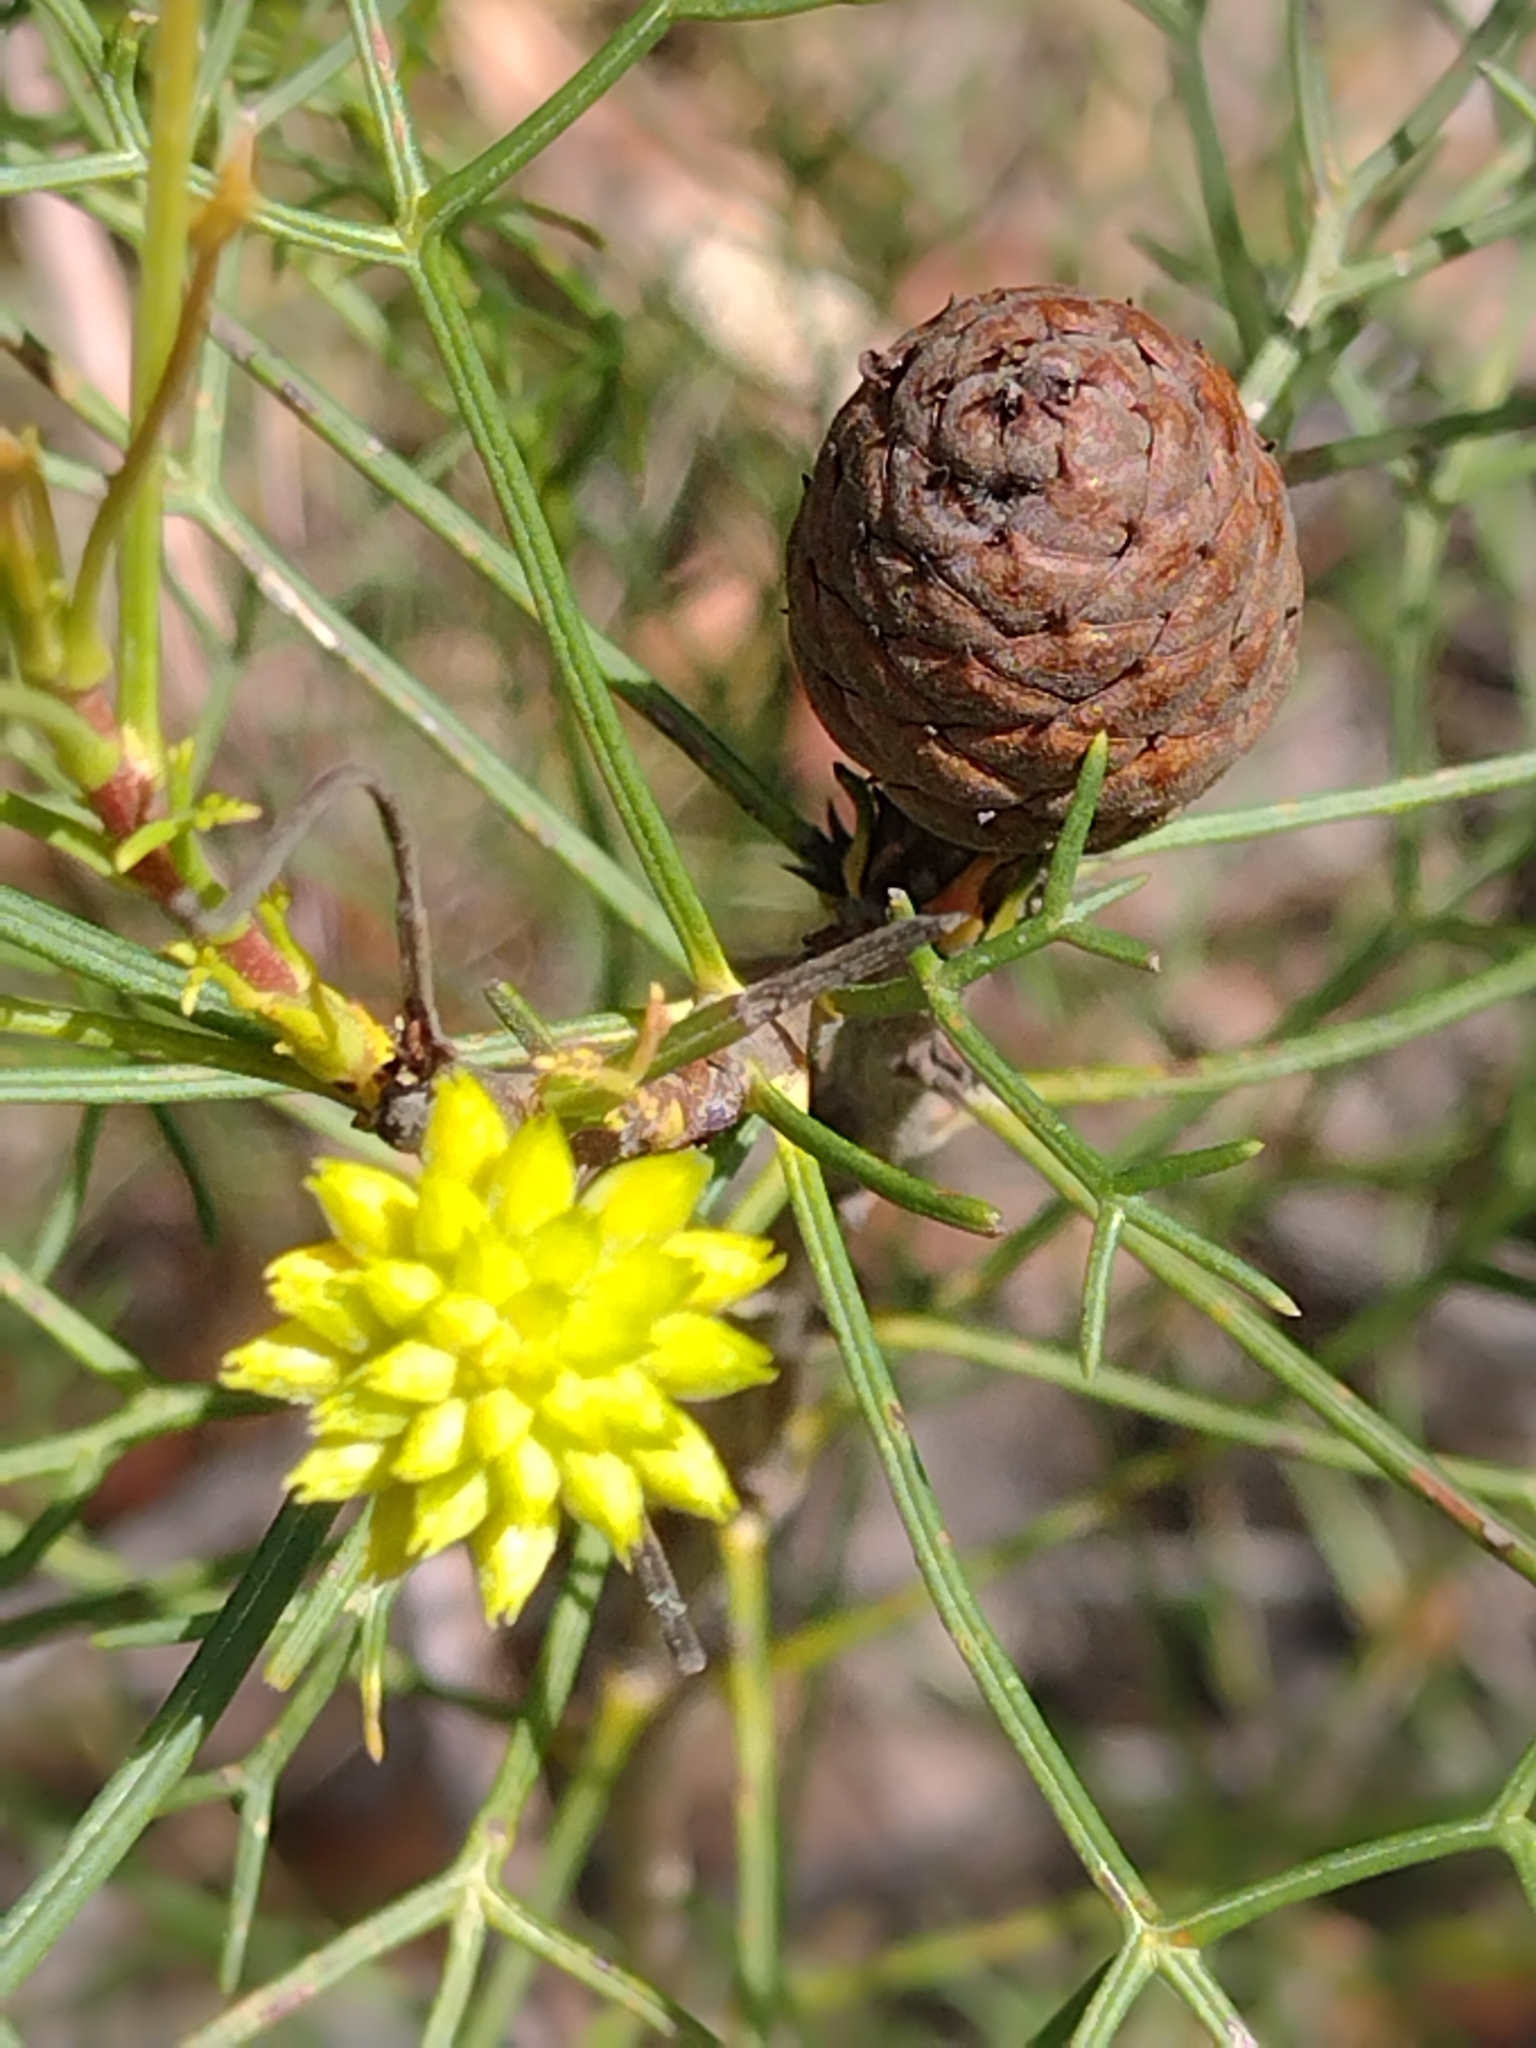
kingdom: Plantae
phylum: Tracheophyta
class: Magnoliopsida
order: Proteales
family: Proteaceae
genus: Petrophile
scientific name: Petrophile pedunculata
